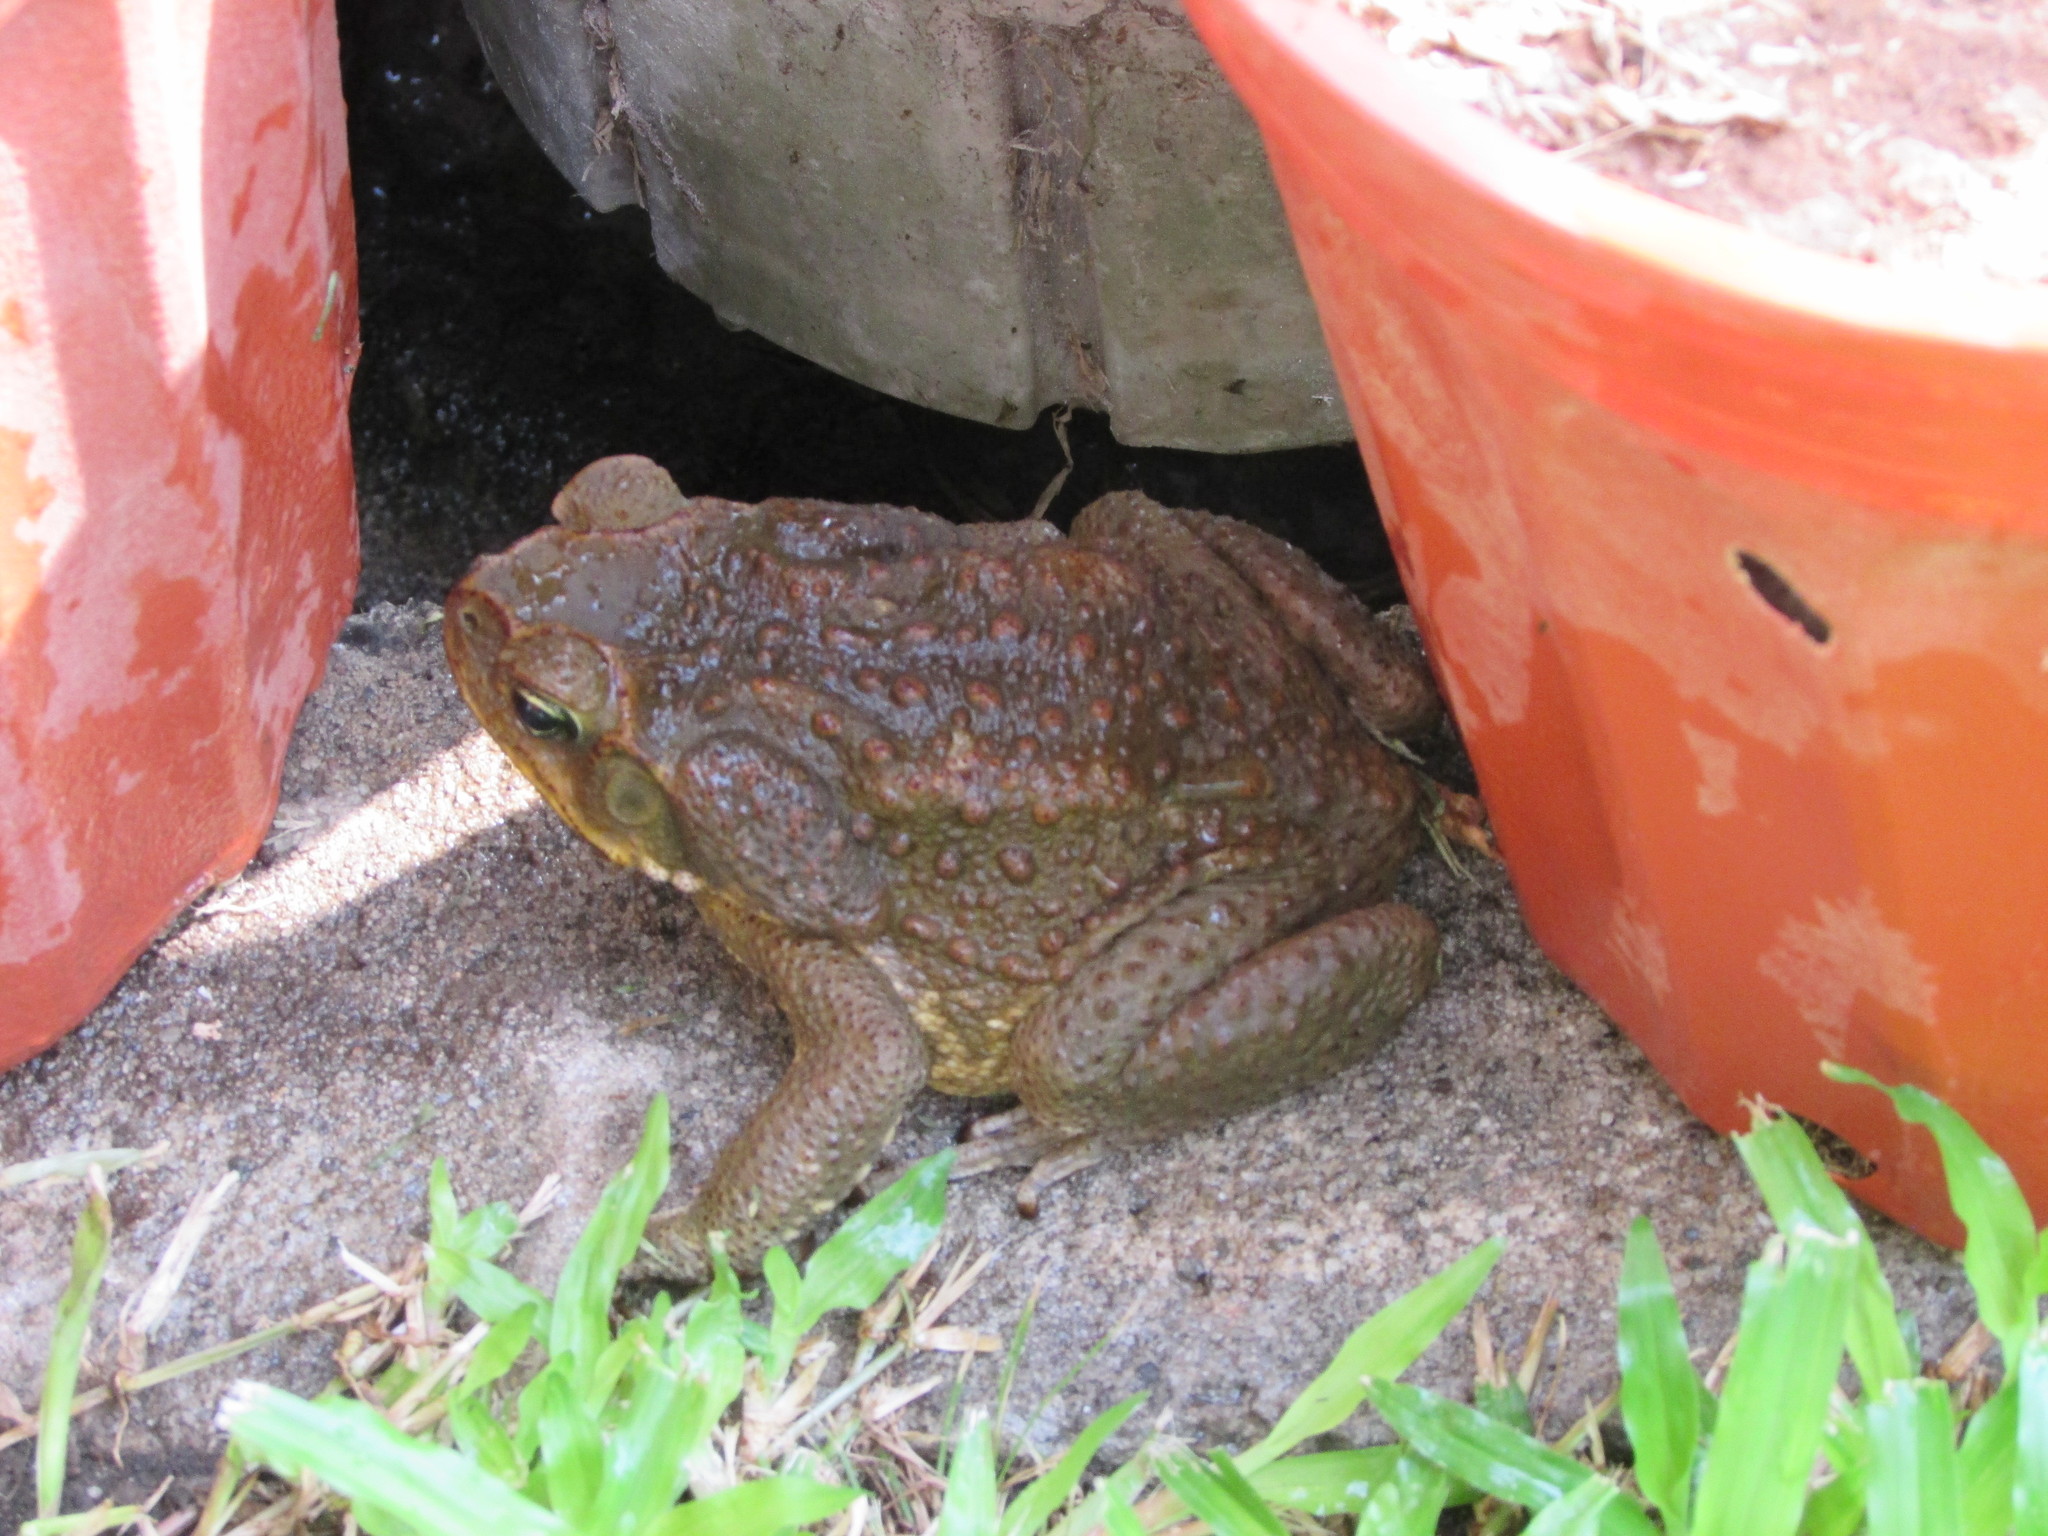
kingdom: Animalia
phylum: Chordata
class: Amphibia
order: Anura
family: Bufonidae
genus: Rhinella
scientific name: Rhinella horribilis
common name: Mesoamerican cane toad
